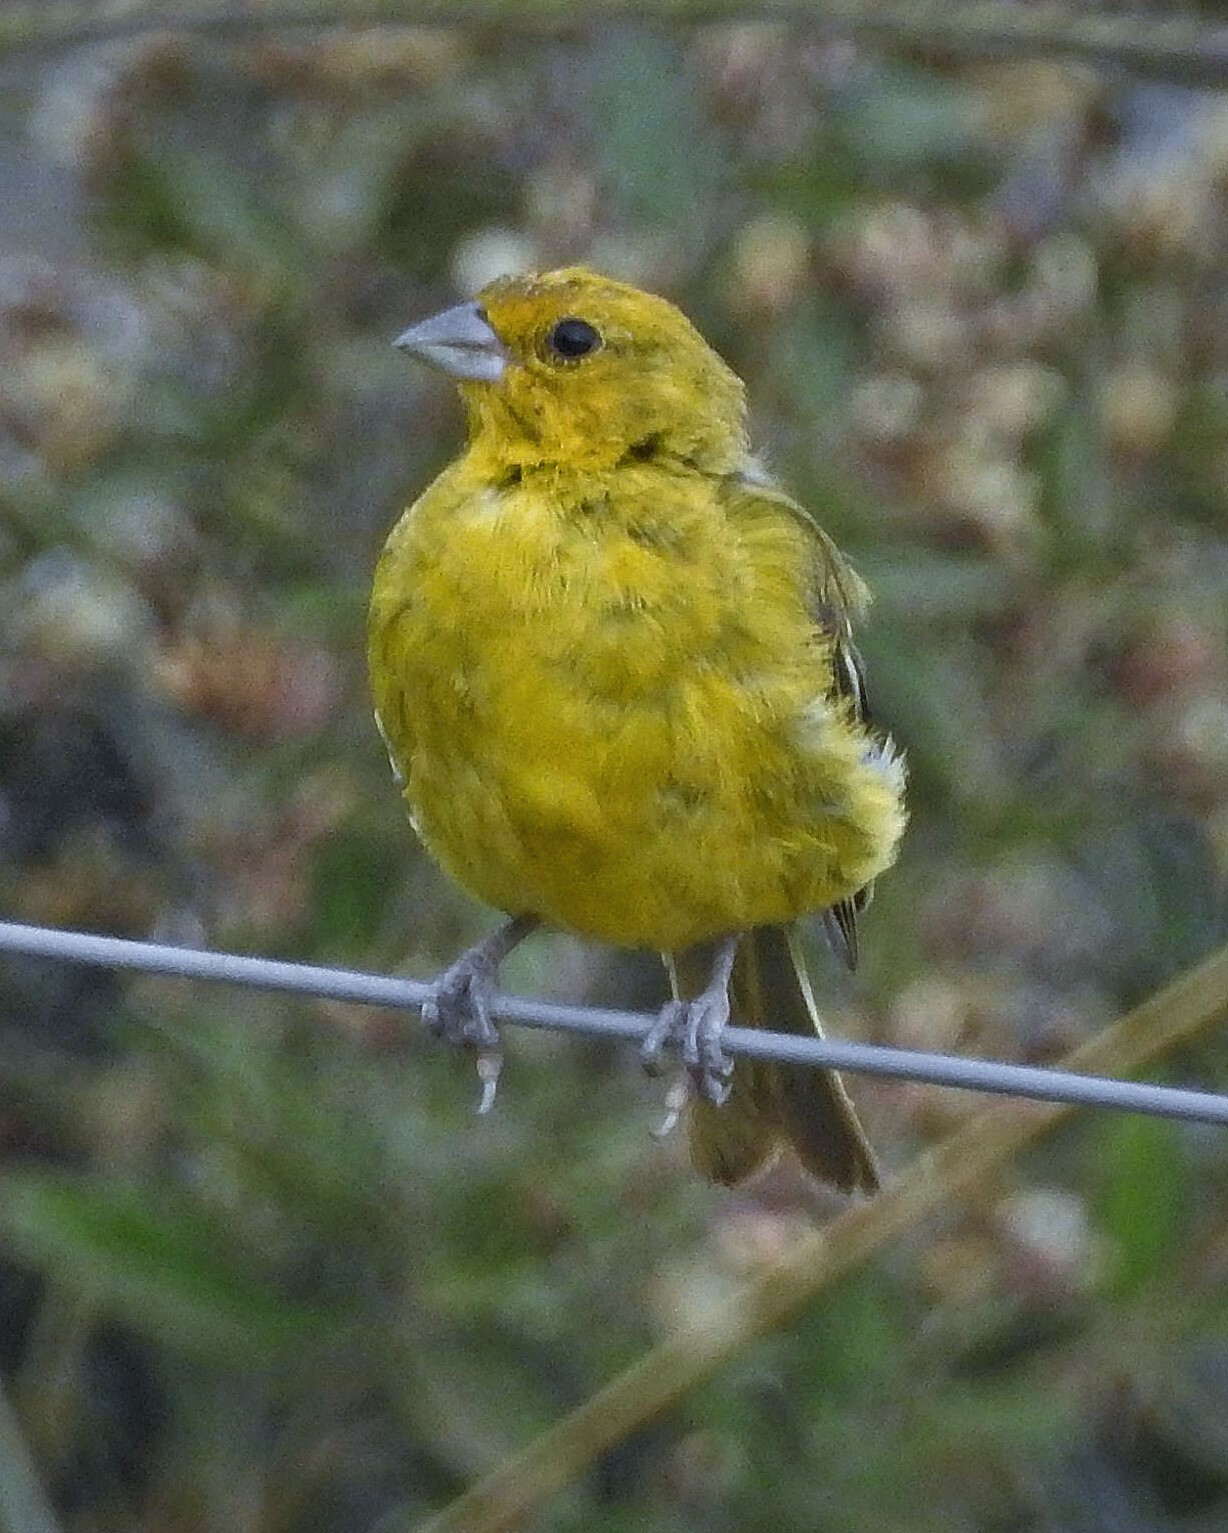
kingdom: Animalia
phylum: Chordata
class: Aves
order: Passeriformes
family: Thraupidae
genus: Sicalis
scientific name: Sicalis flaveola
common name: Saffron finch
